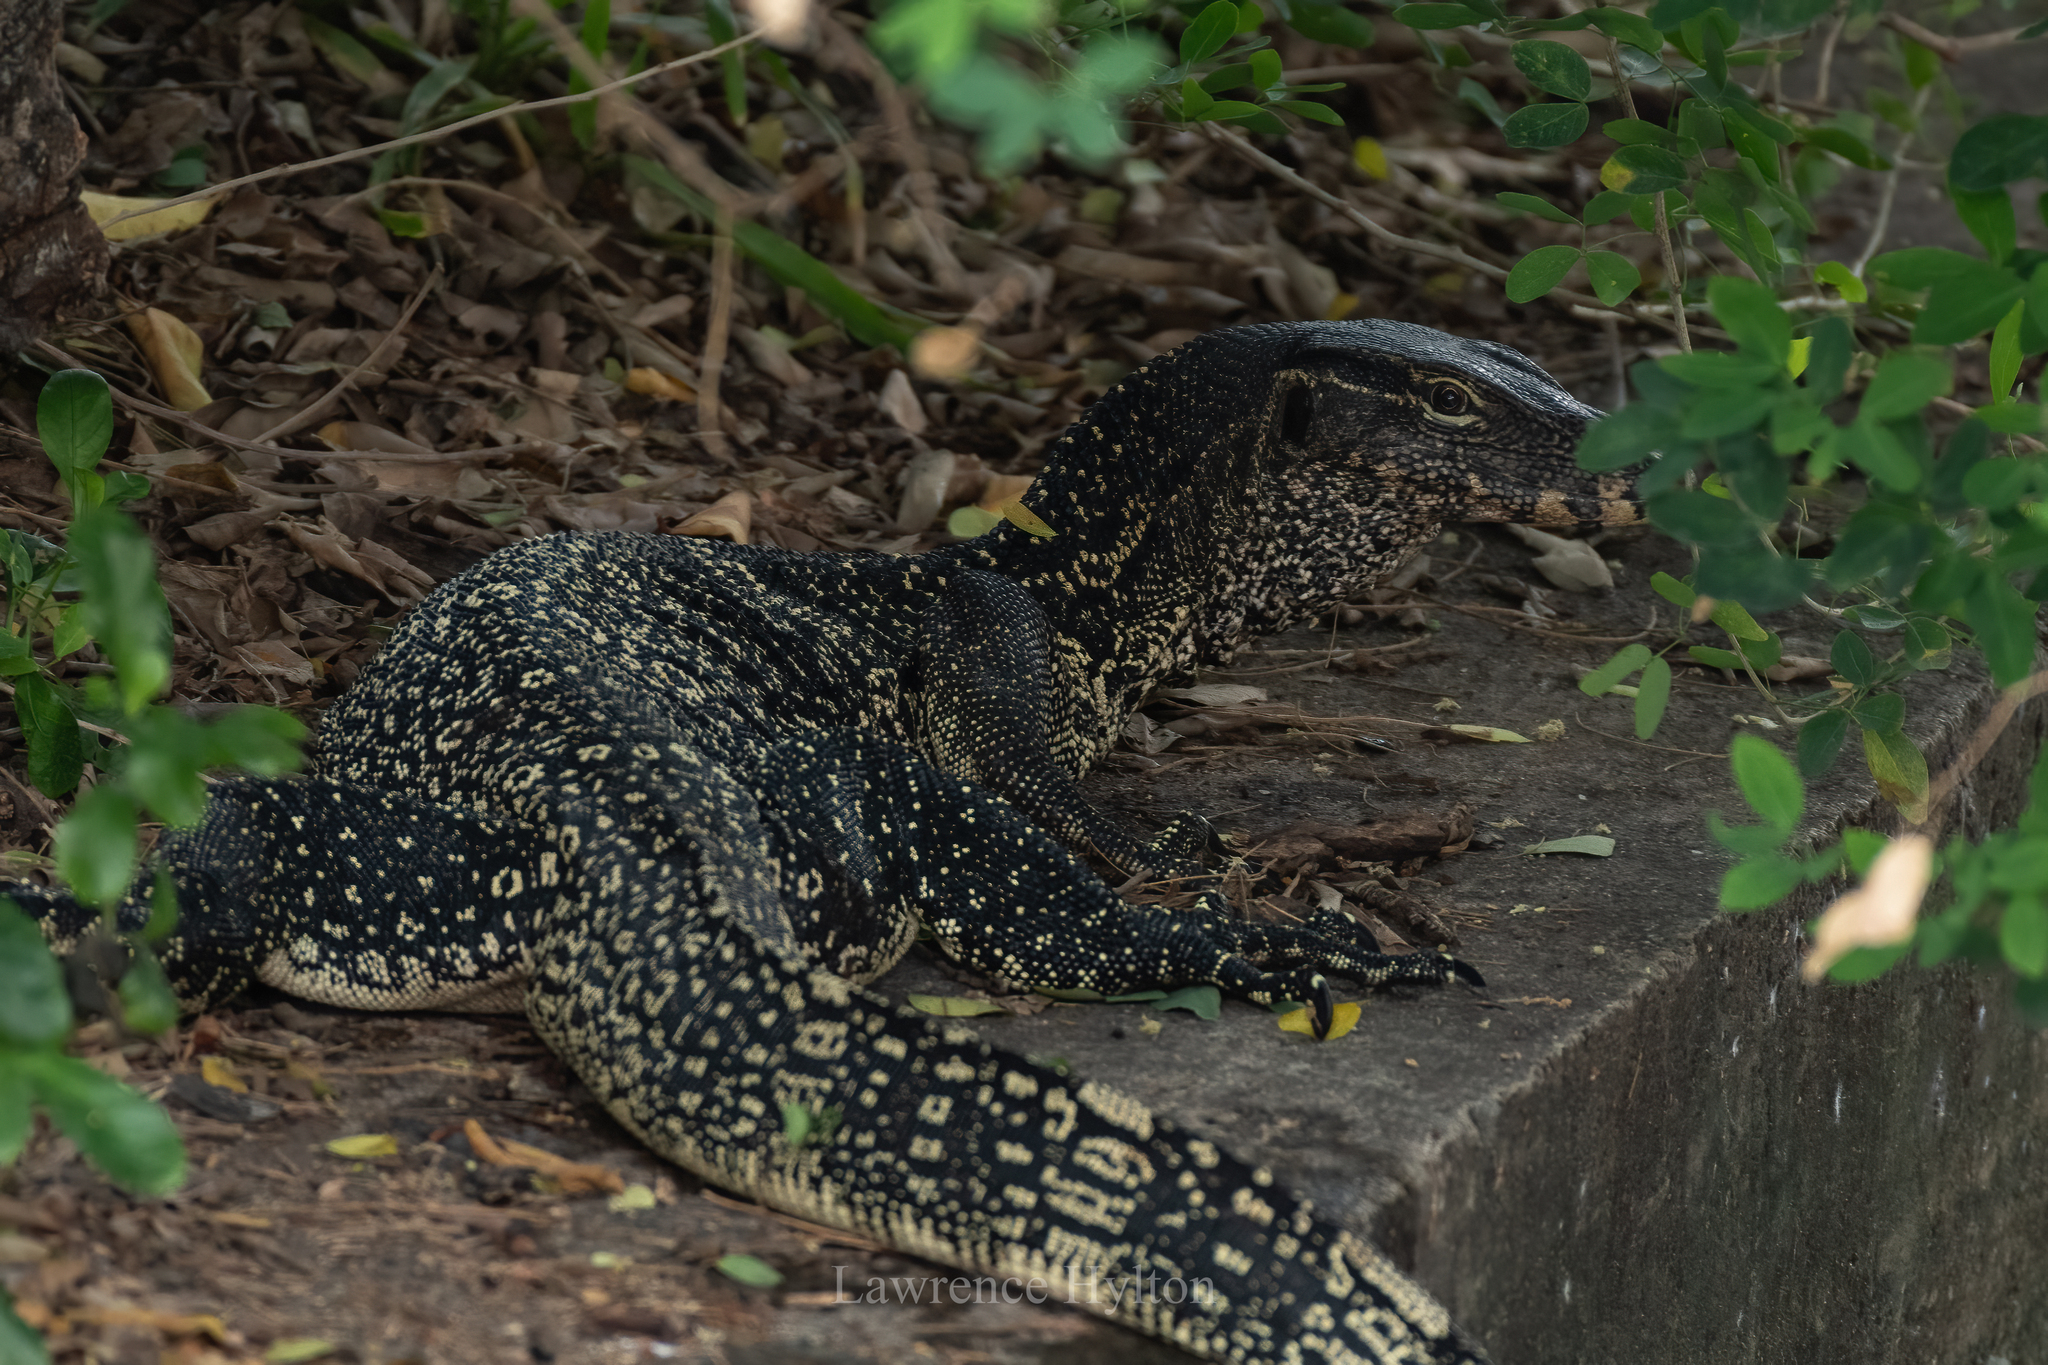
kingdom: Animalia
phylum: Chordata
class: Squamata
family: Varanidae
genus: Varanus
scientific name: Varanus salvator
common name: Common water monitor
